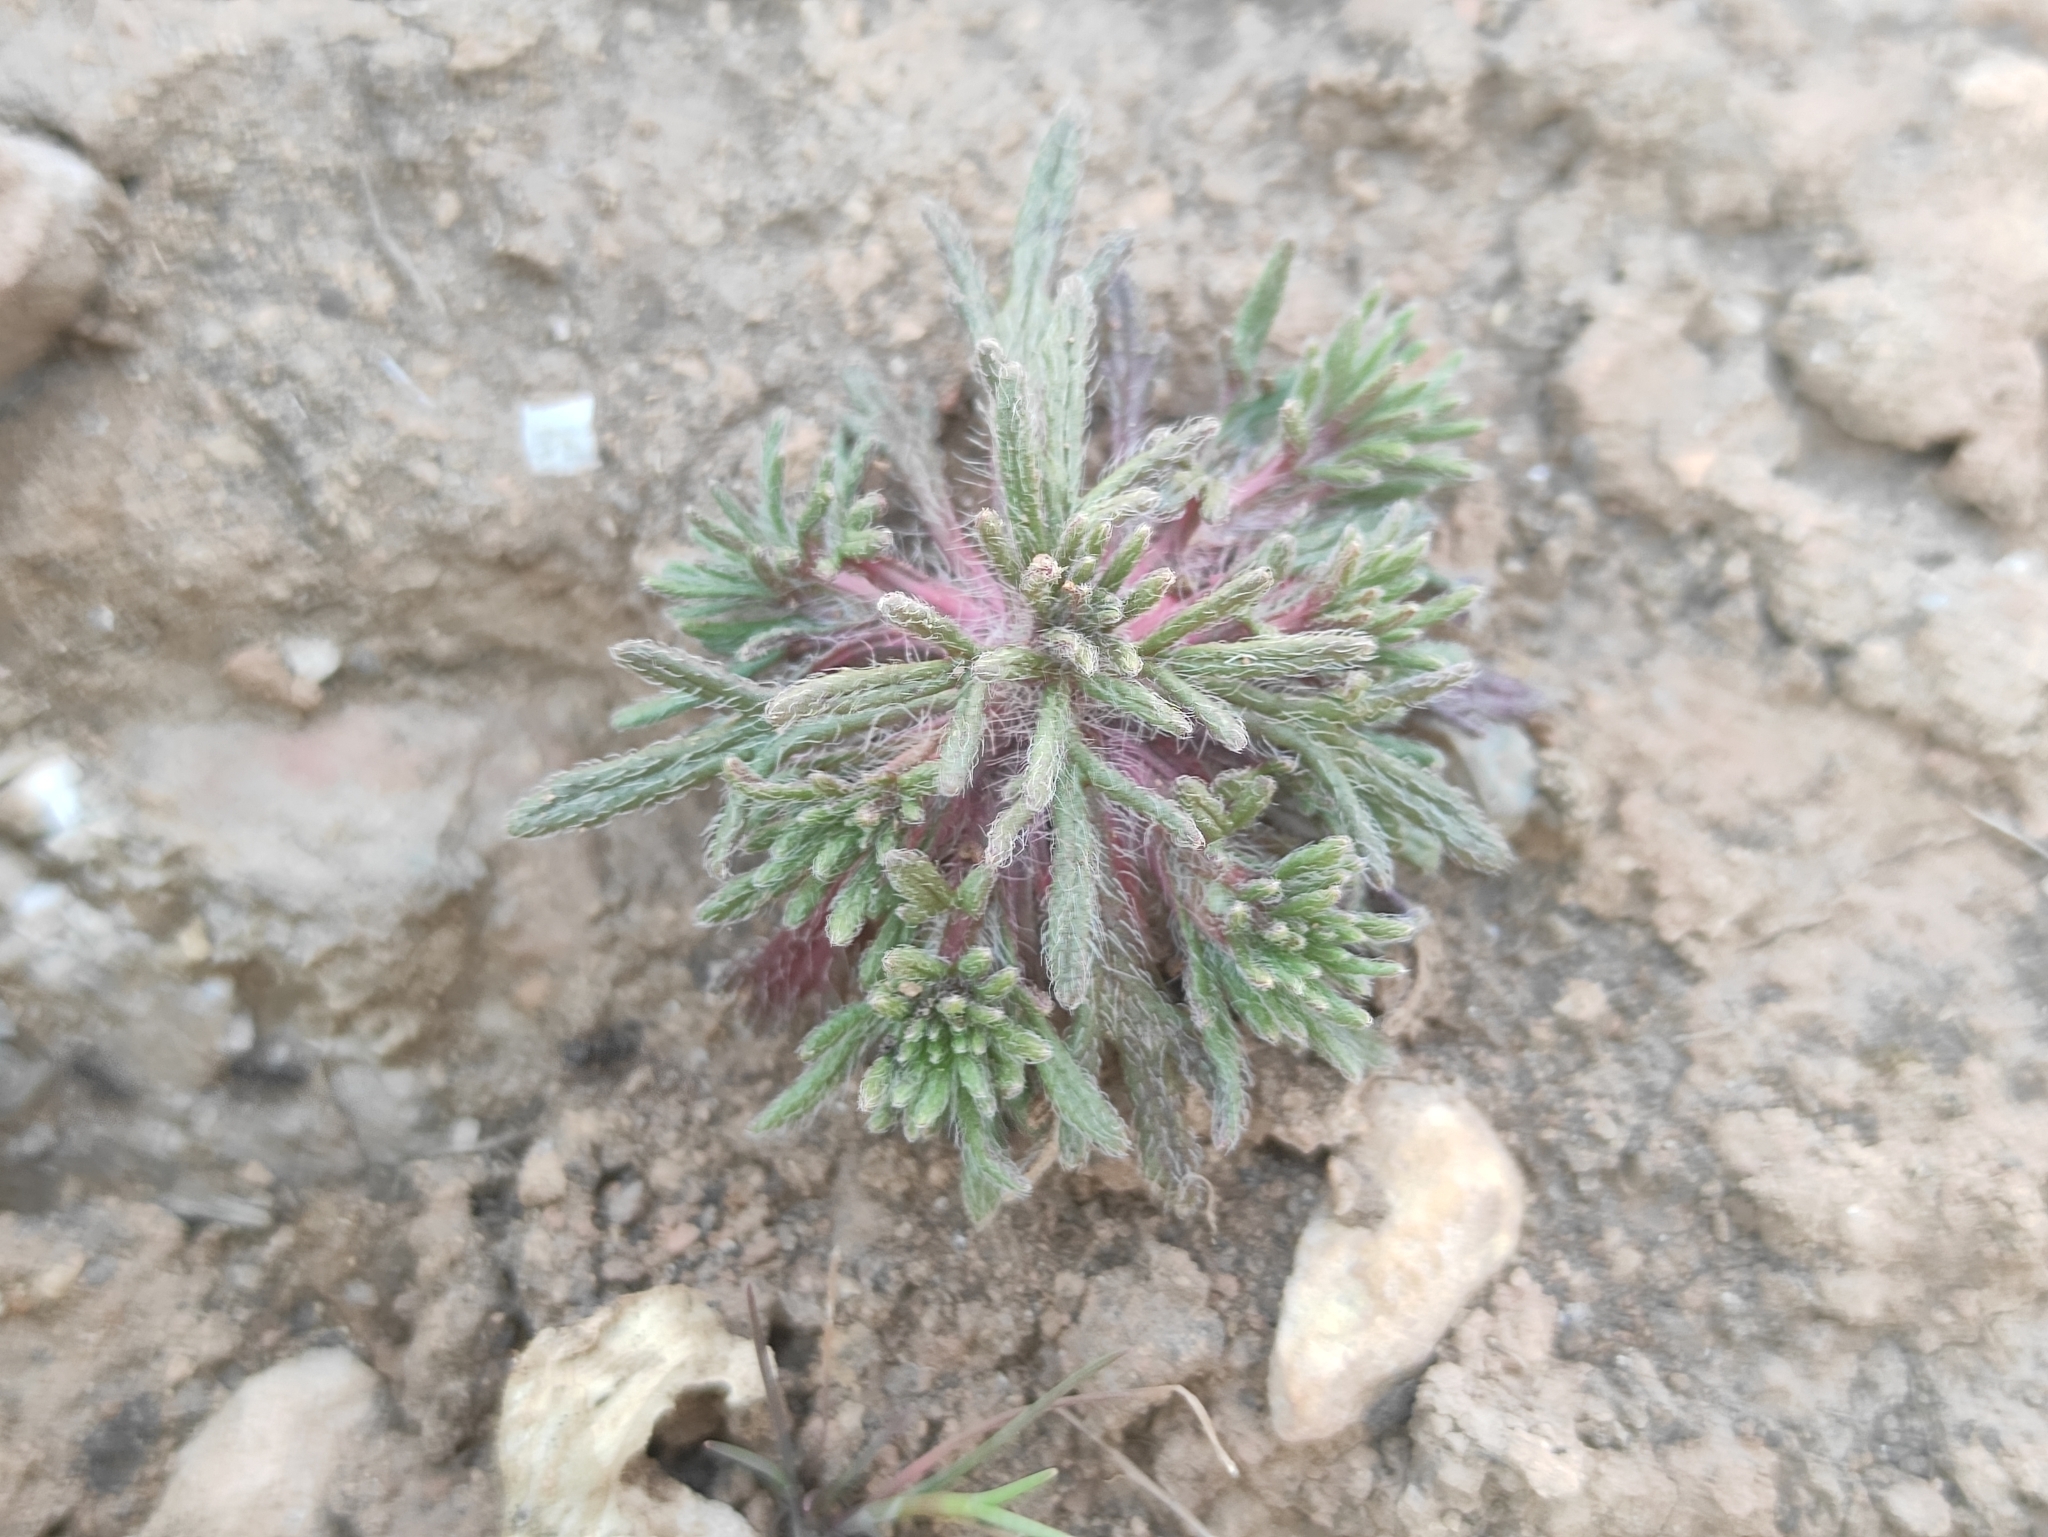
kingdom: Plantae
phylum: Tracheophyta
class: Magnoliopsida
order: Lamiales
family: Lamiaceae
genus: Ajuga
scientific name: Ajuga chamaepitys
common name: Ground-pine
